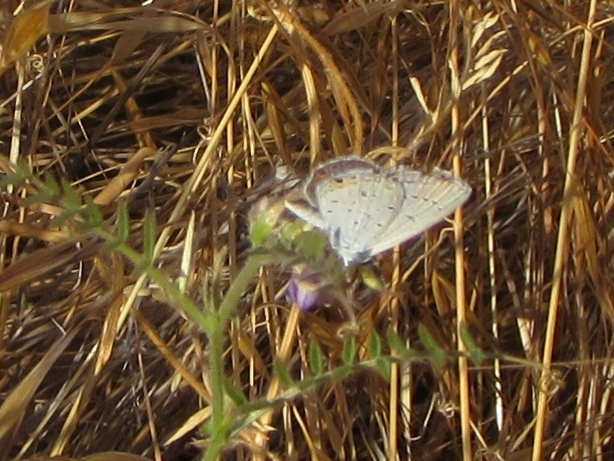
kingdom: Animalia
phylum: Arthropoda
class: Insecta
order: Lepidoptera
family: Lycaenidae
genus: Elkalyce
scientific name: Elkalyce comyntas
